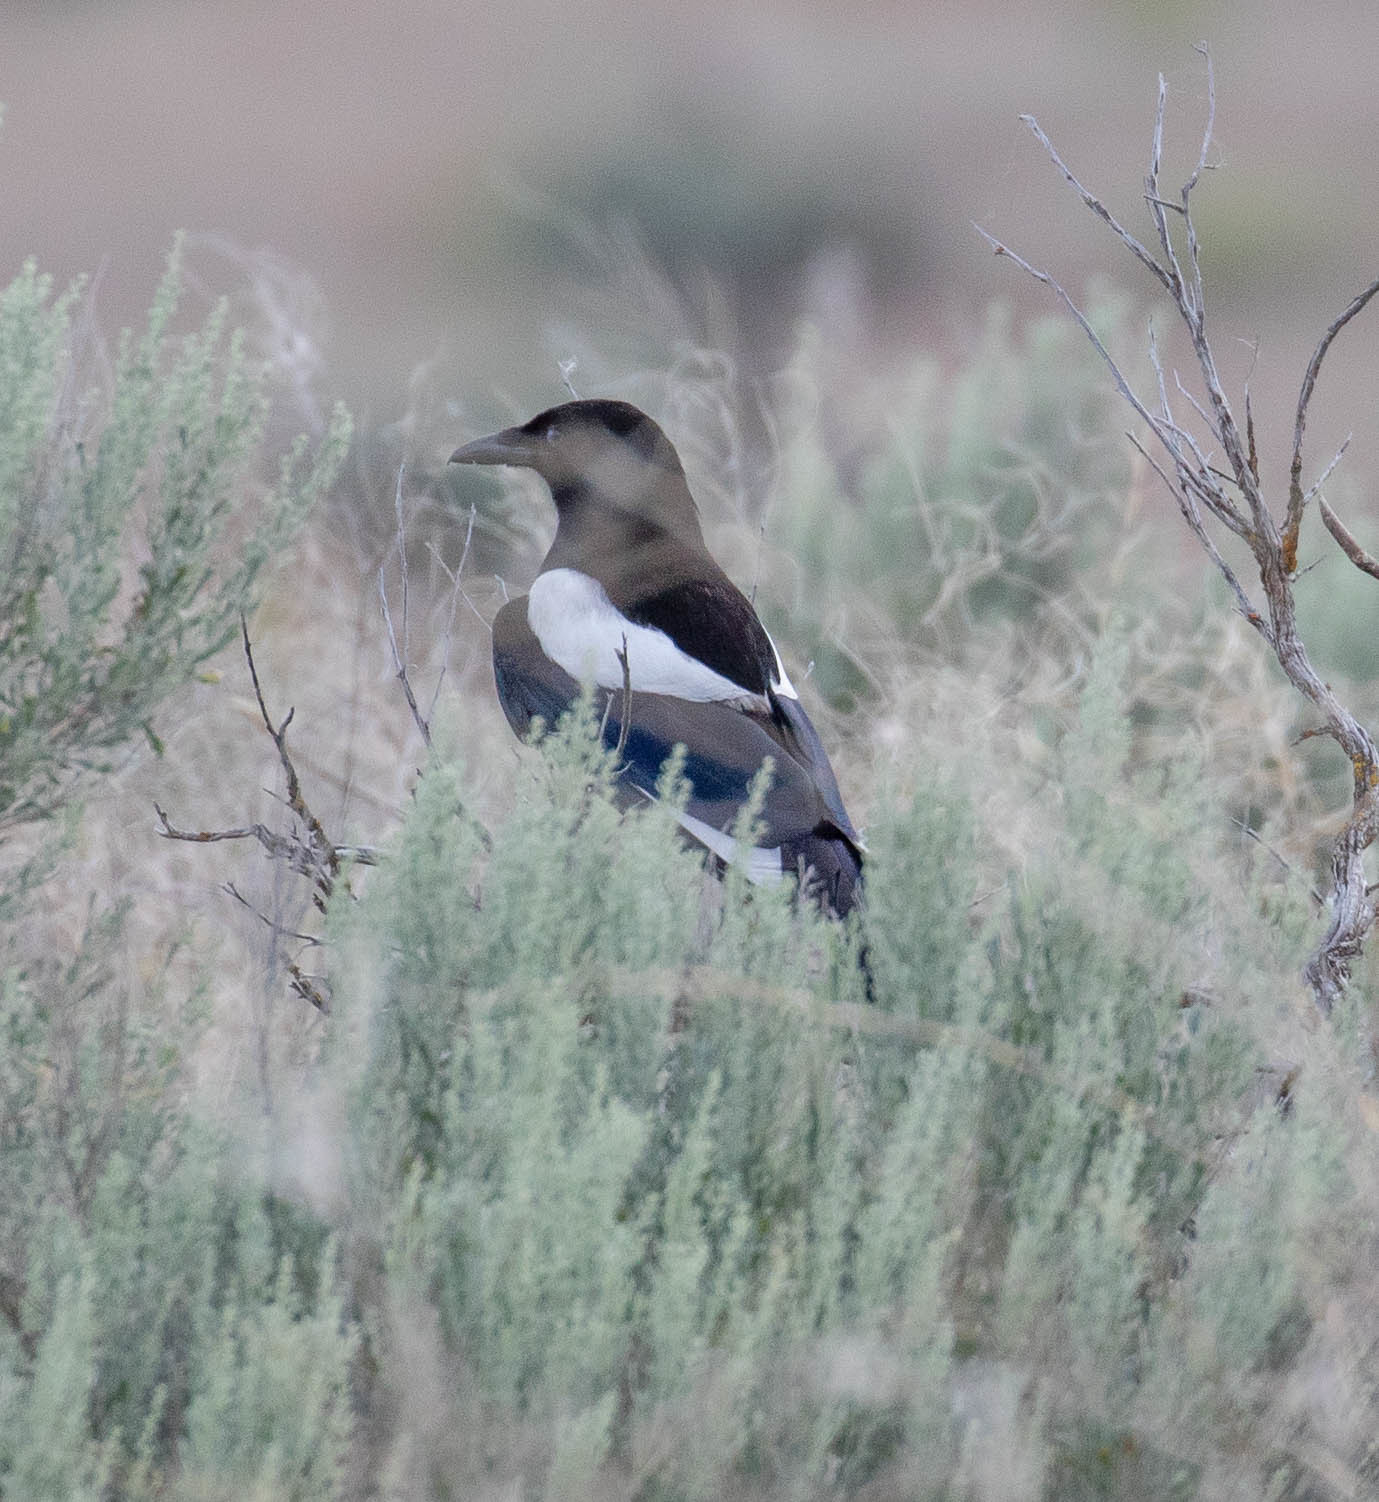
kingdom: Animalia
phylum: Chordata
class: Aves
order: Passeriformes
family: Corvidae
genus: Pica
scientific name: Pica hudsonia
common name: Black-billed magpie
